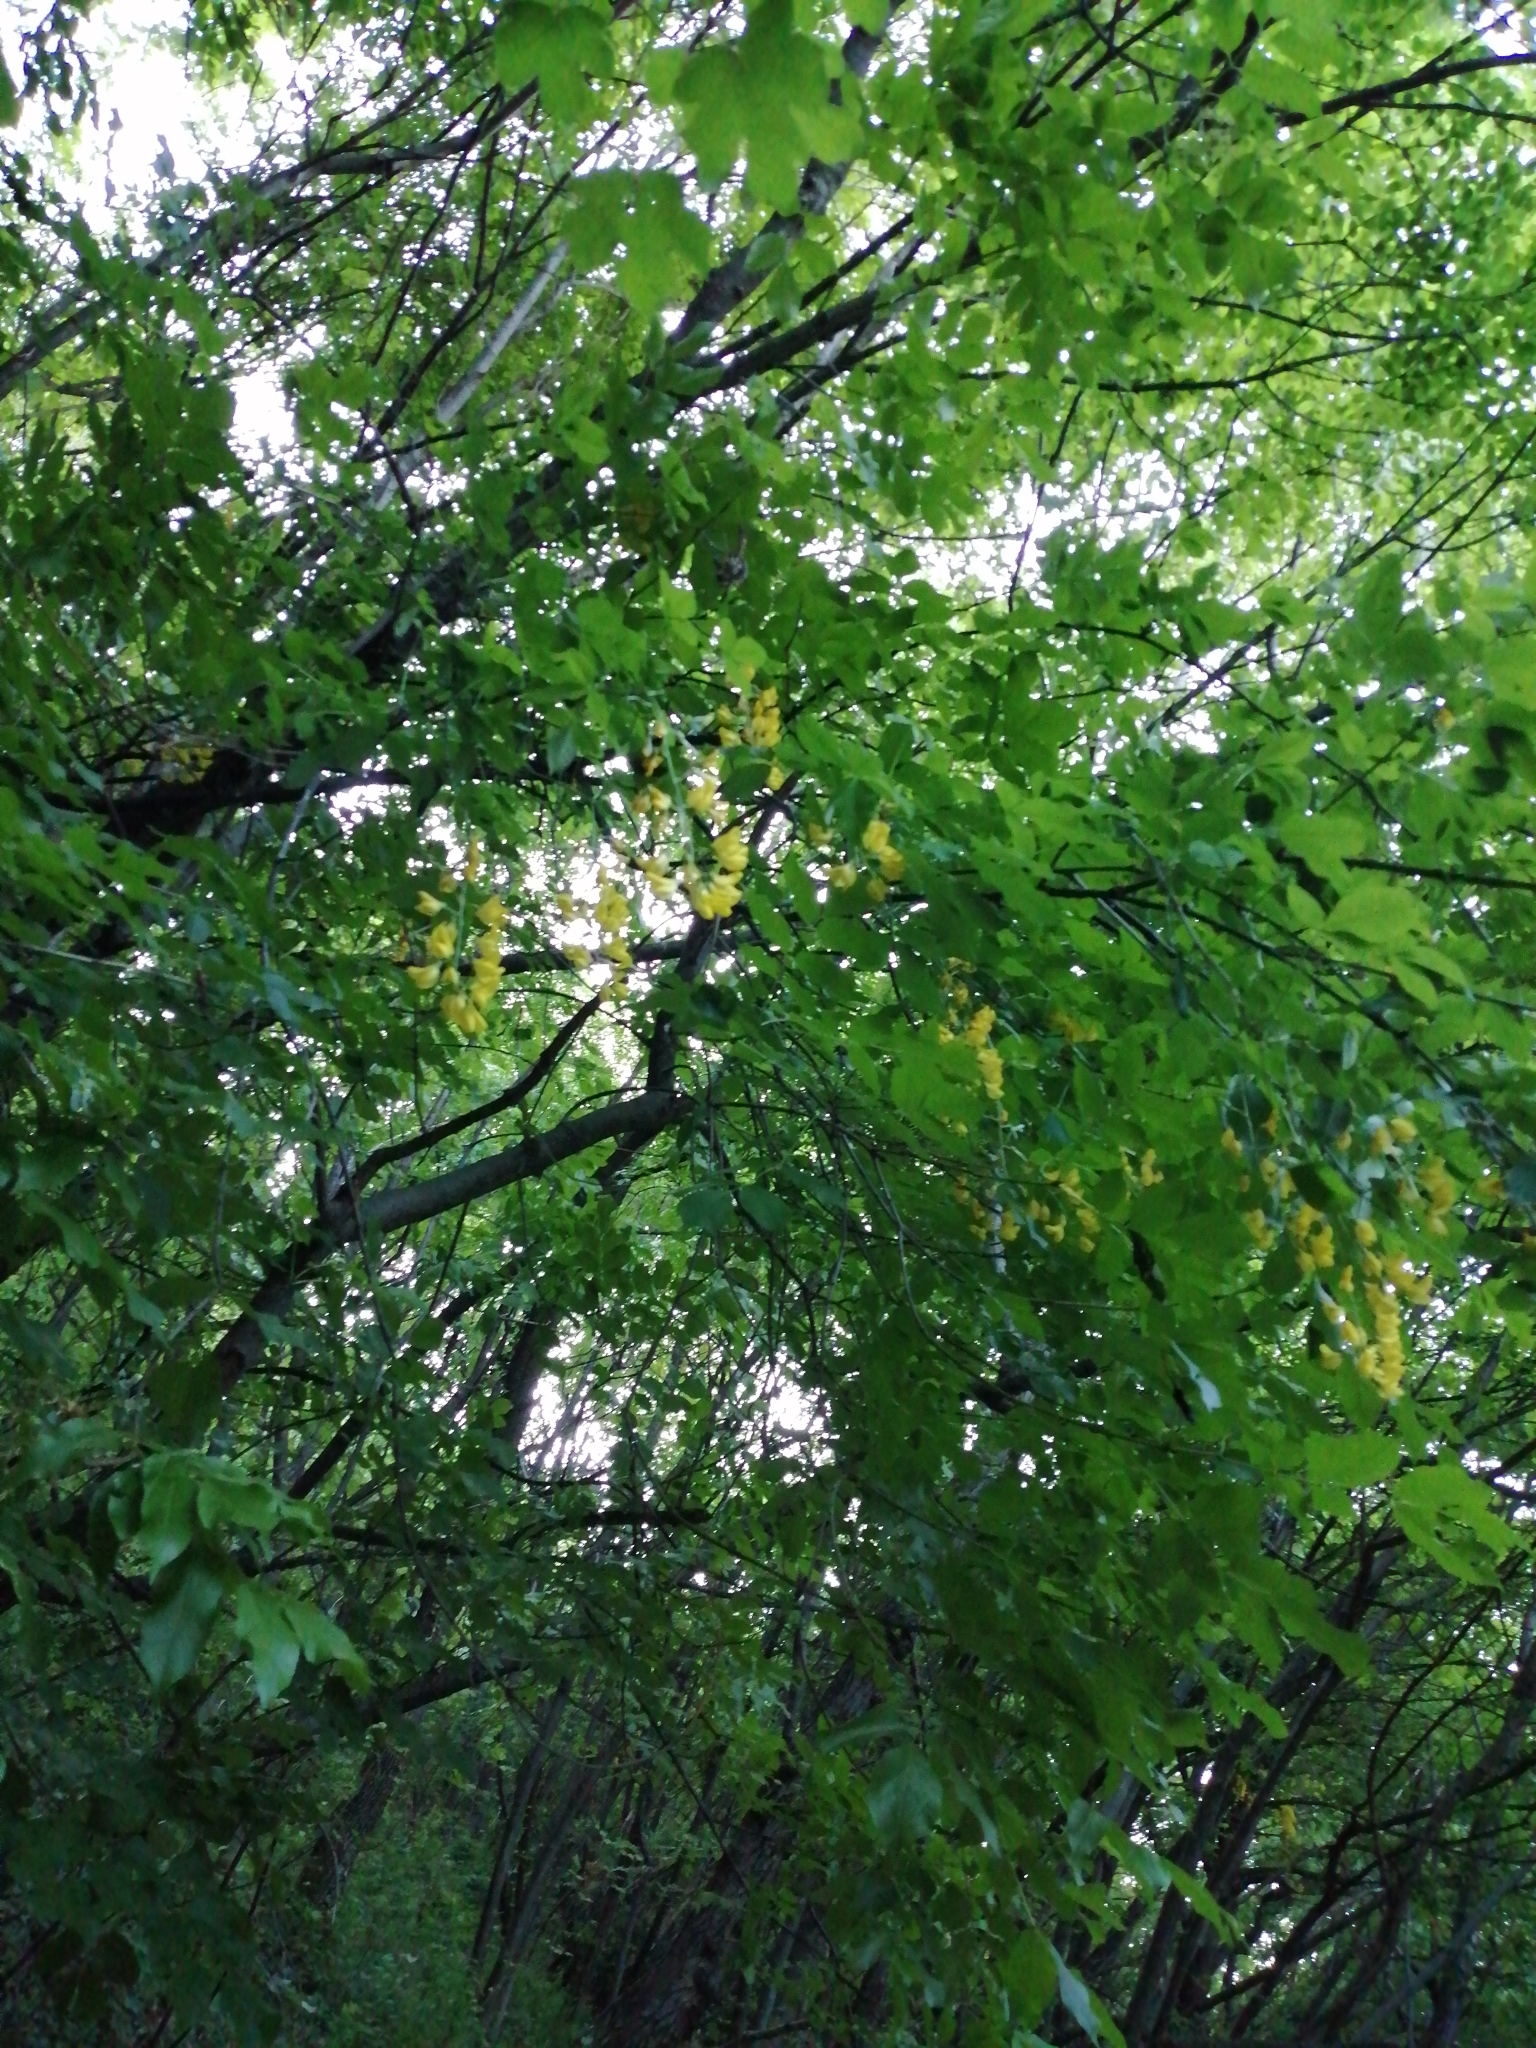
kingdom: Plantae
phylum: Tracheophyta
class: Magnoliopsida
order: Fabales
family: Fabaceae
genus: Laburnum
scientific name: Laburnum anagyroides
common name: Laburnum
